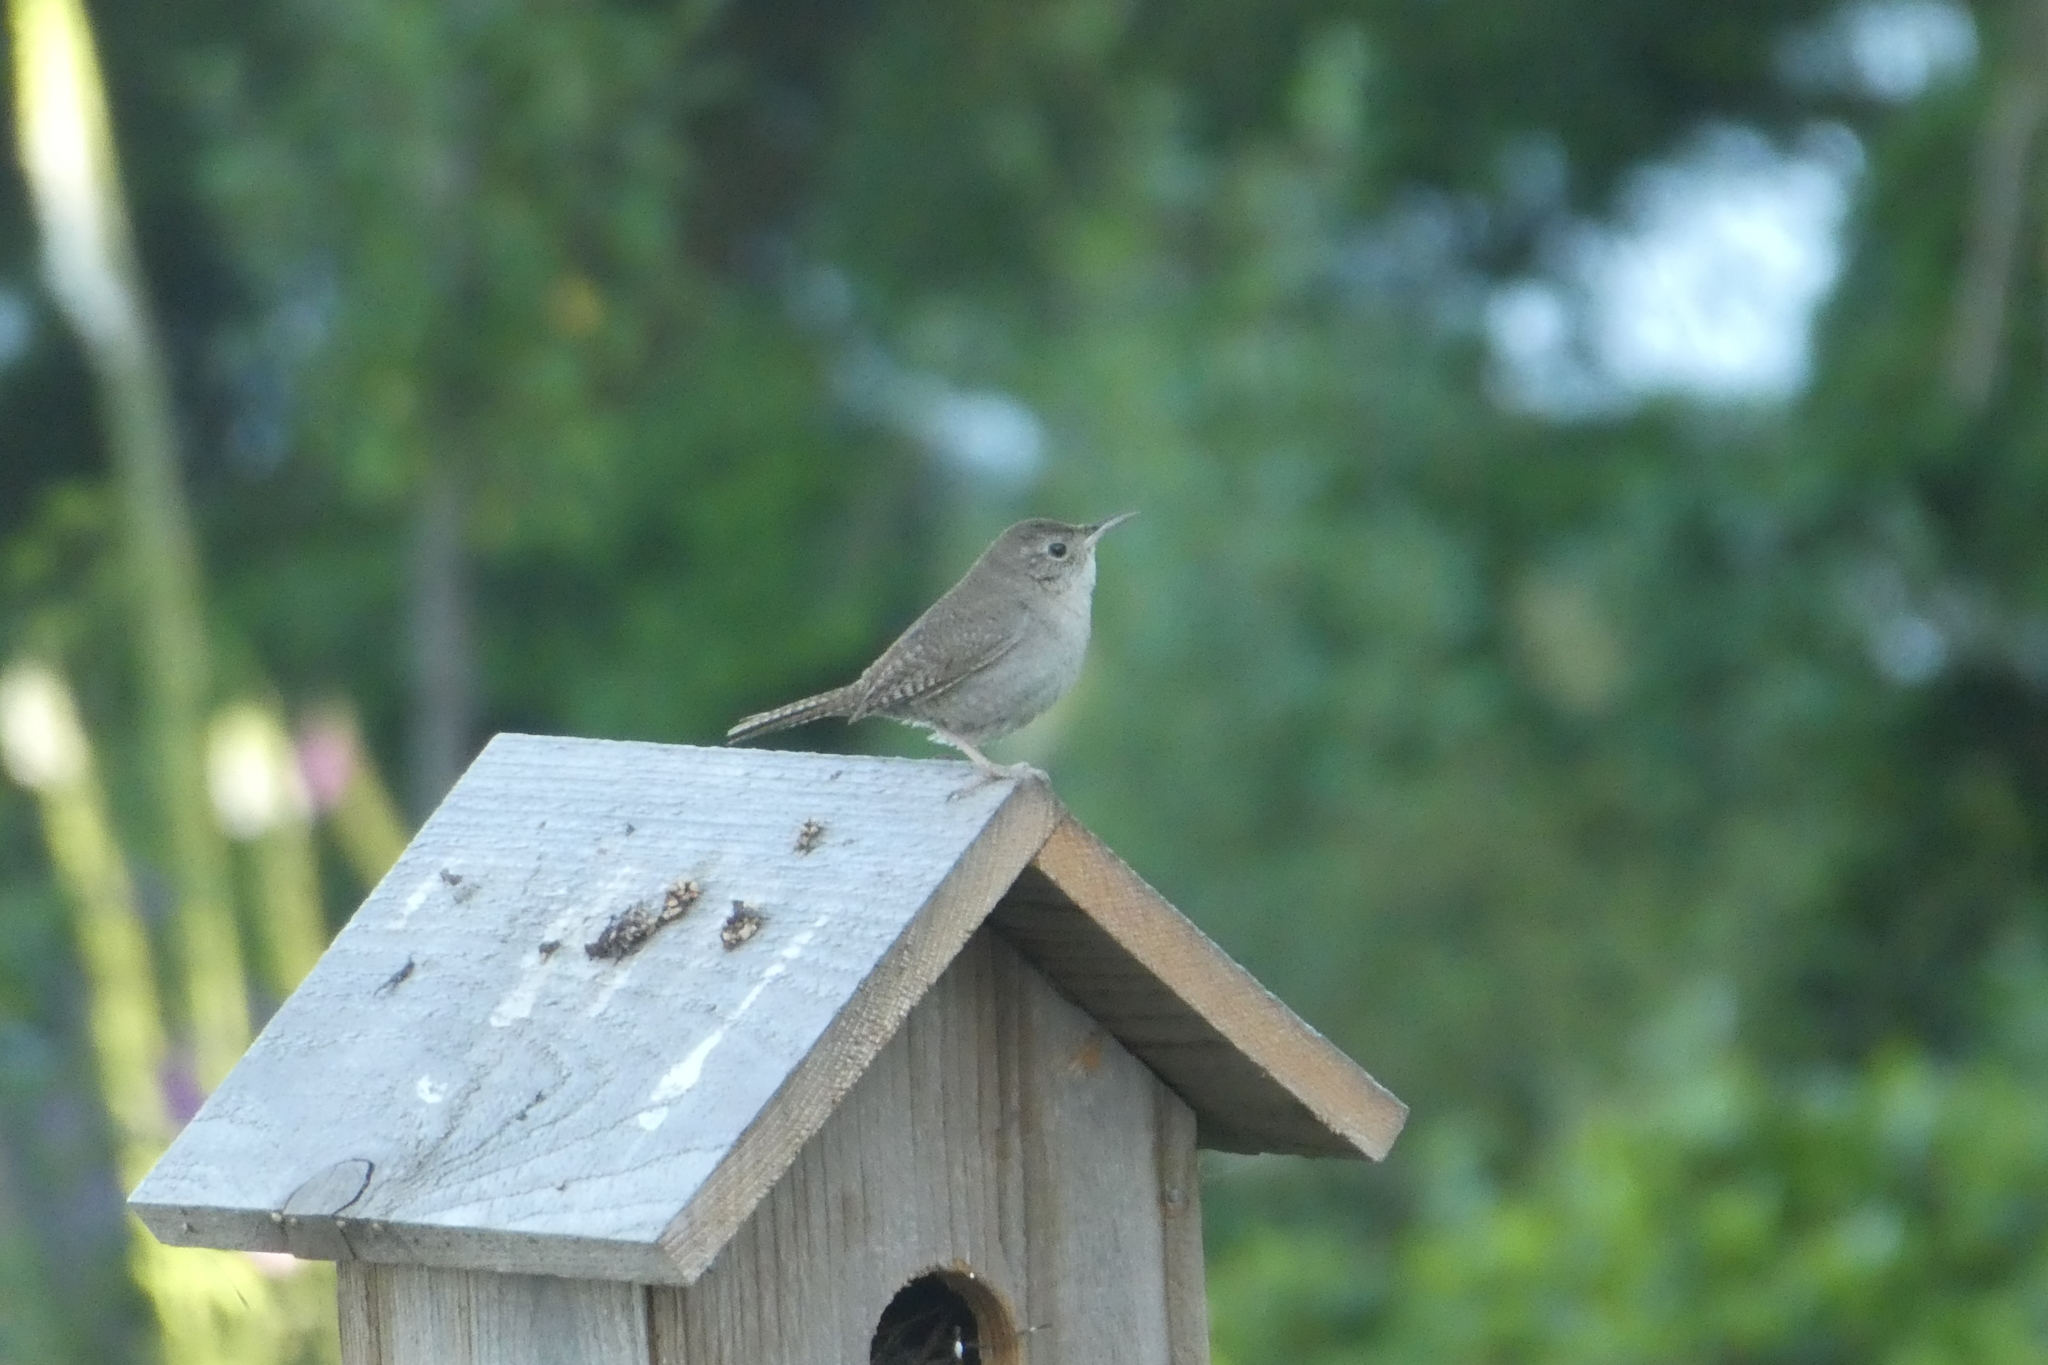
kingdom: Animalia
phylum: Chordata
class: Aves
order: Passeriformes
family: Troglodytidae
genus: Troglodytes
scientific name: Troglodytes aedon
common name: House wren
